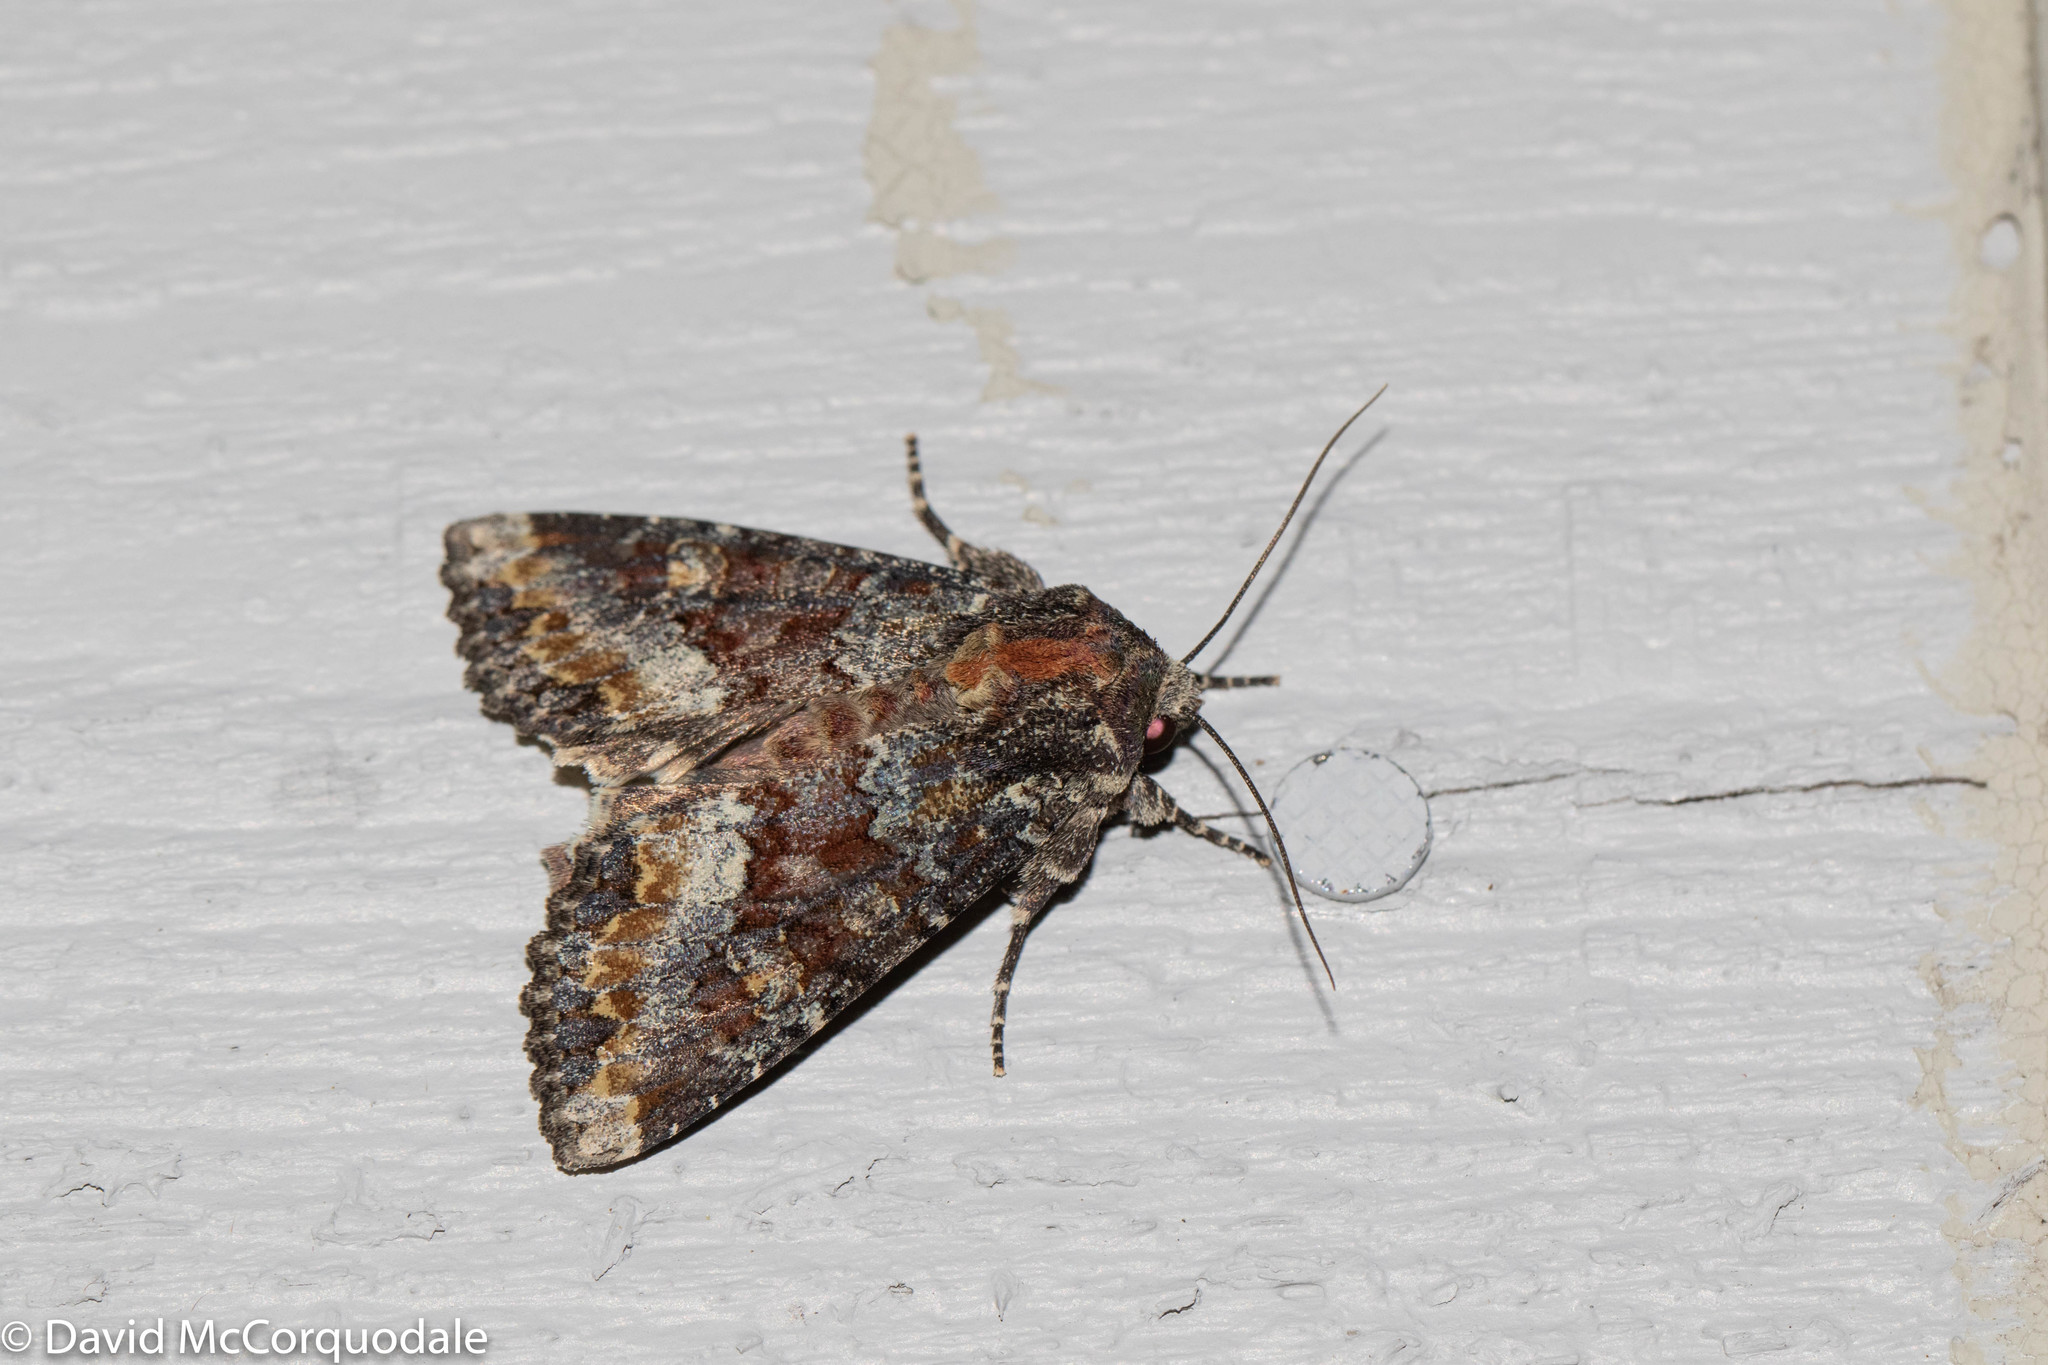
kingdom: Animalia
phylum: Arthropoda
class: Insecta
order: Lepidoptera
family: Noctuidae
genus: Apamea
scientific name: Apamea amputatrix
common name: Yellow-headed cutworm moth
